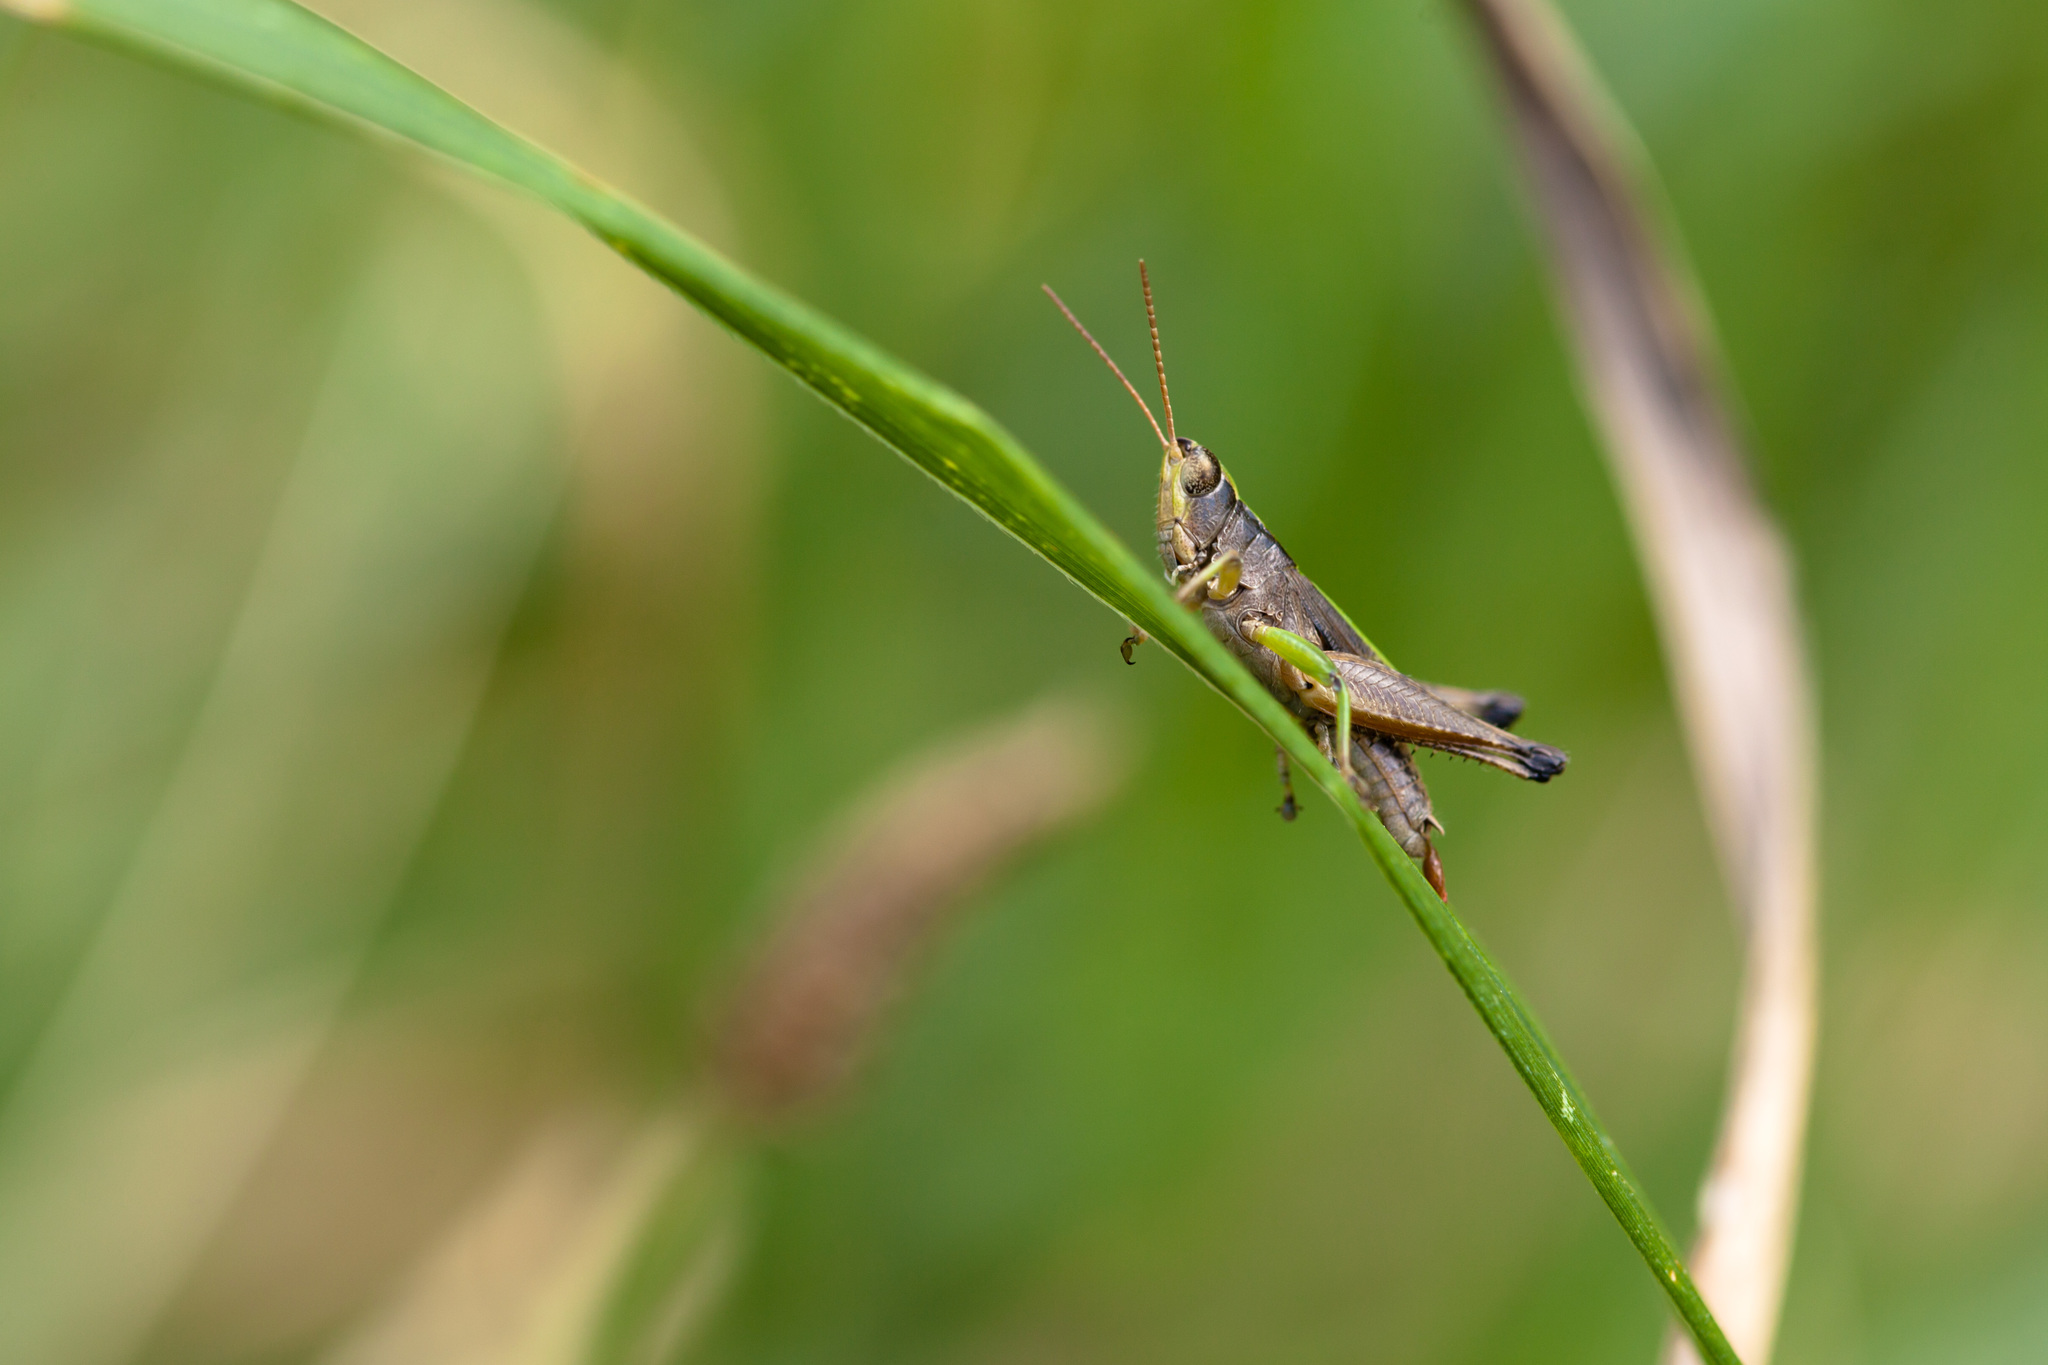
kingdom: Animalia
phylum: Arthropoda
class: Insecta
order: Orthoptera
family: Acrididae
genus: Dichromorpha
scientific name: Dichromorpha viridis
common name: Short-winged green grasshopper
